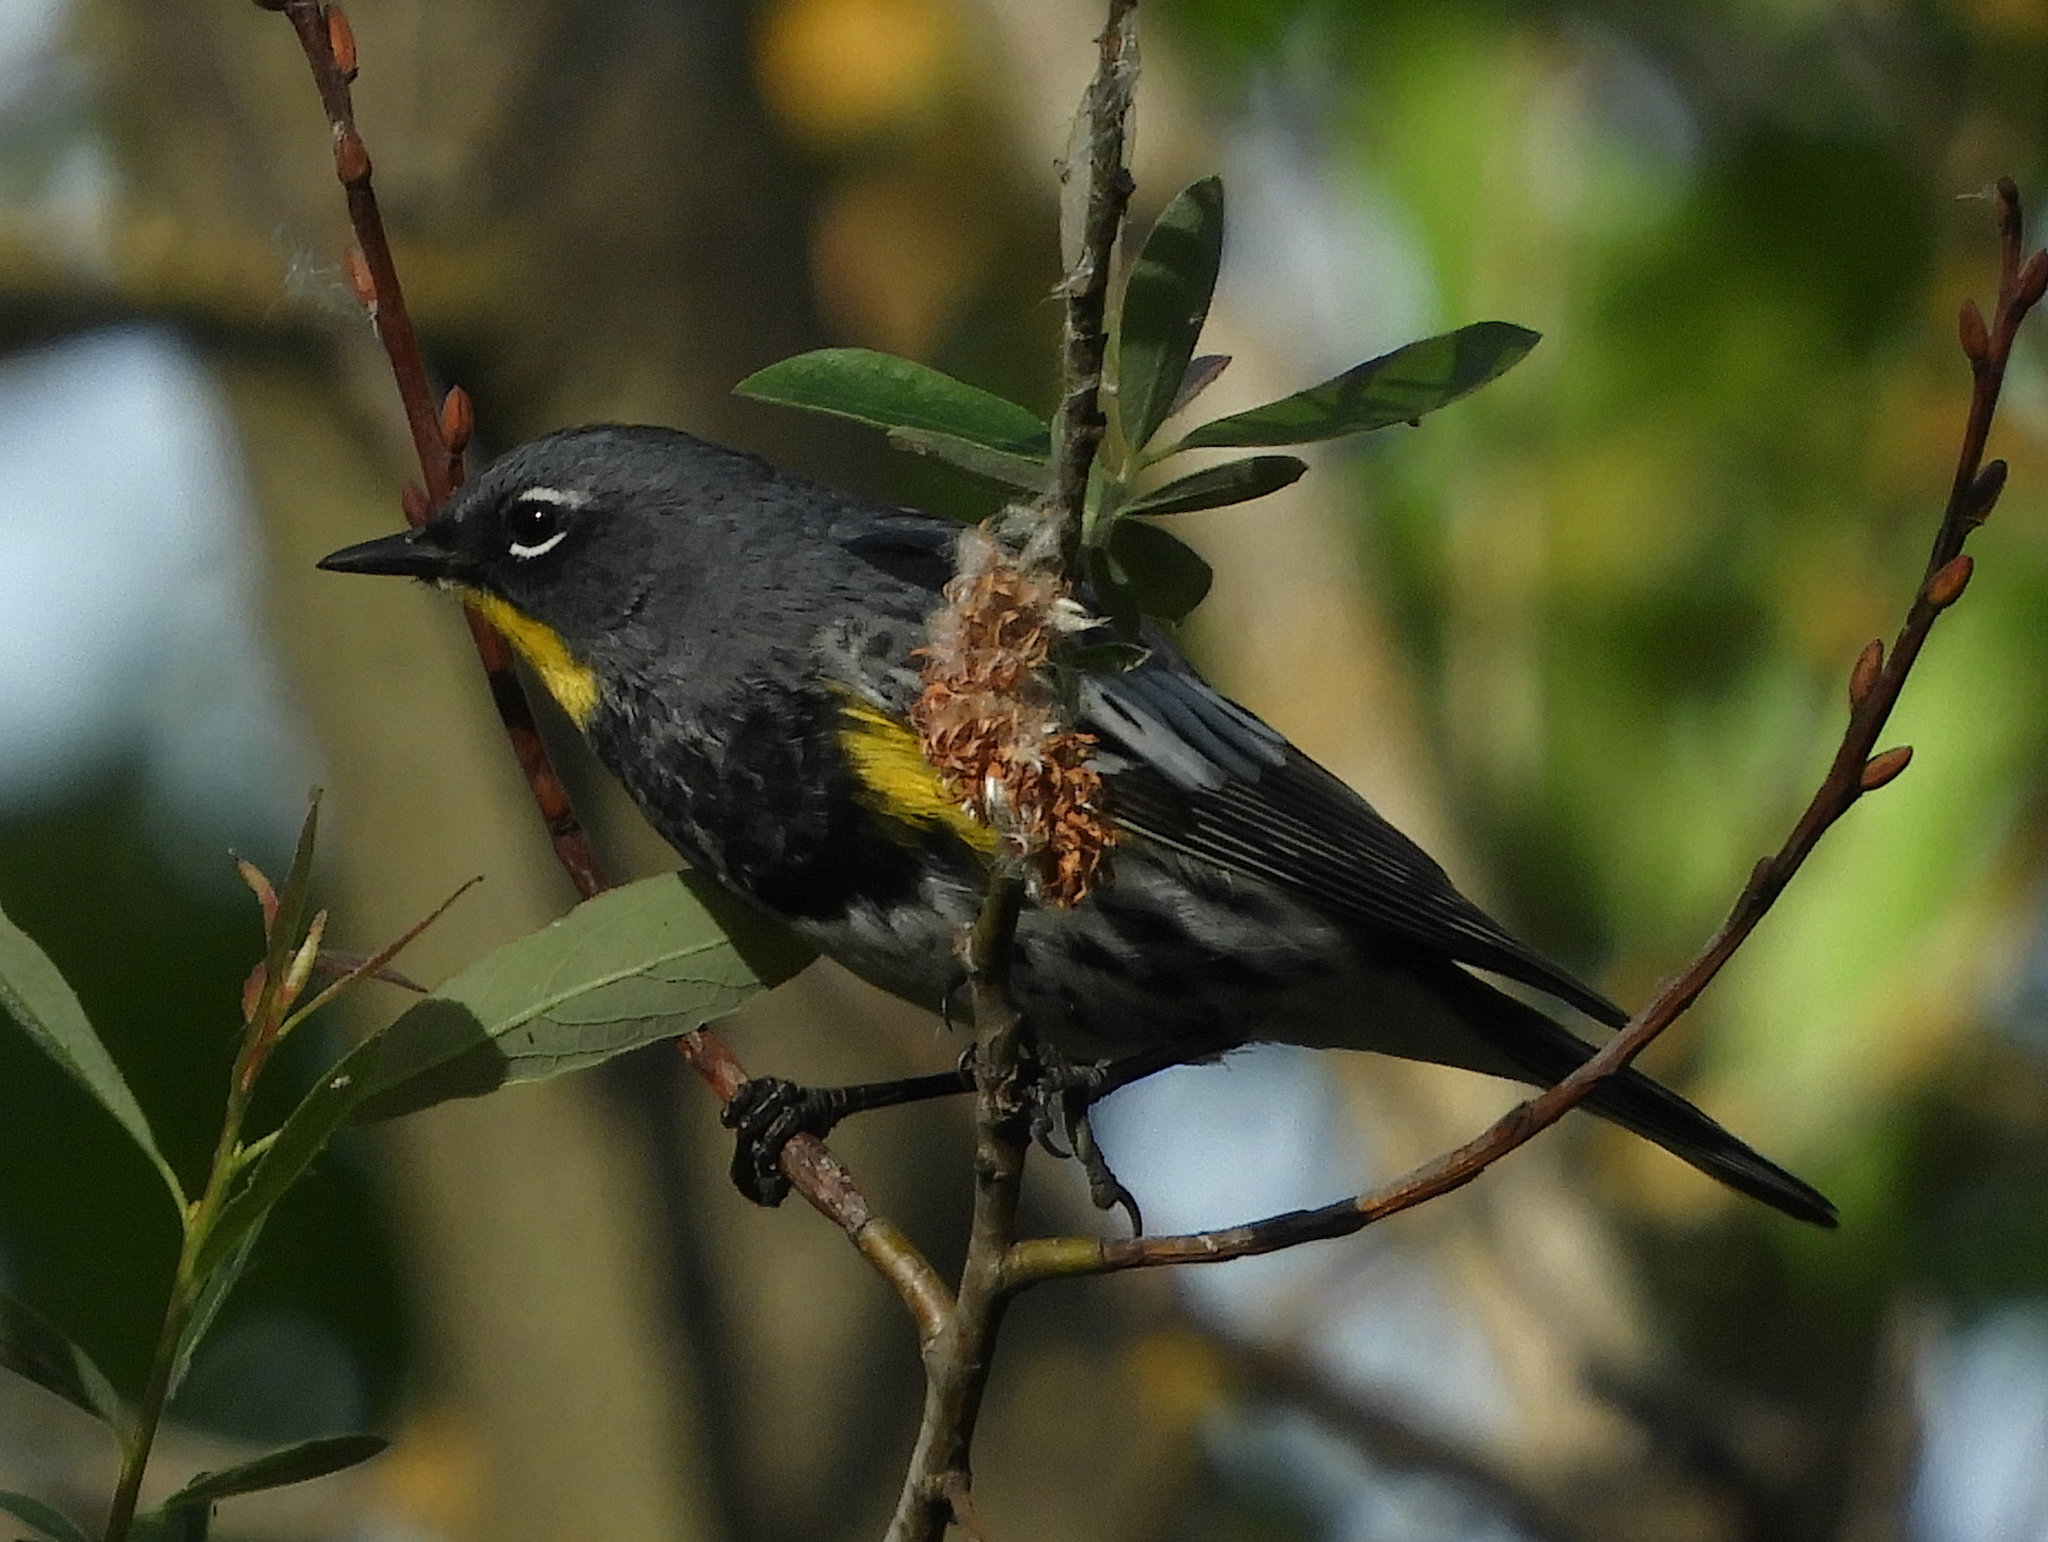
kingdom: Animalia
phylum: Chordata
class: Aves
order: Passeriformes
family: Parulidae
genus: Setophaga
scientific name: Setophaga auduboni
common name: Audubon's warbler
